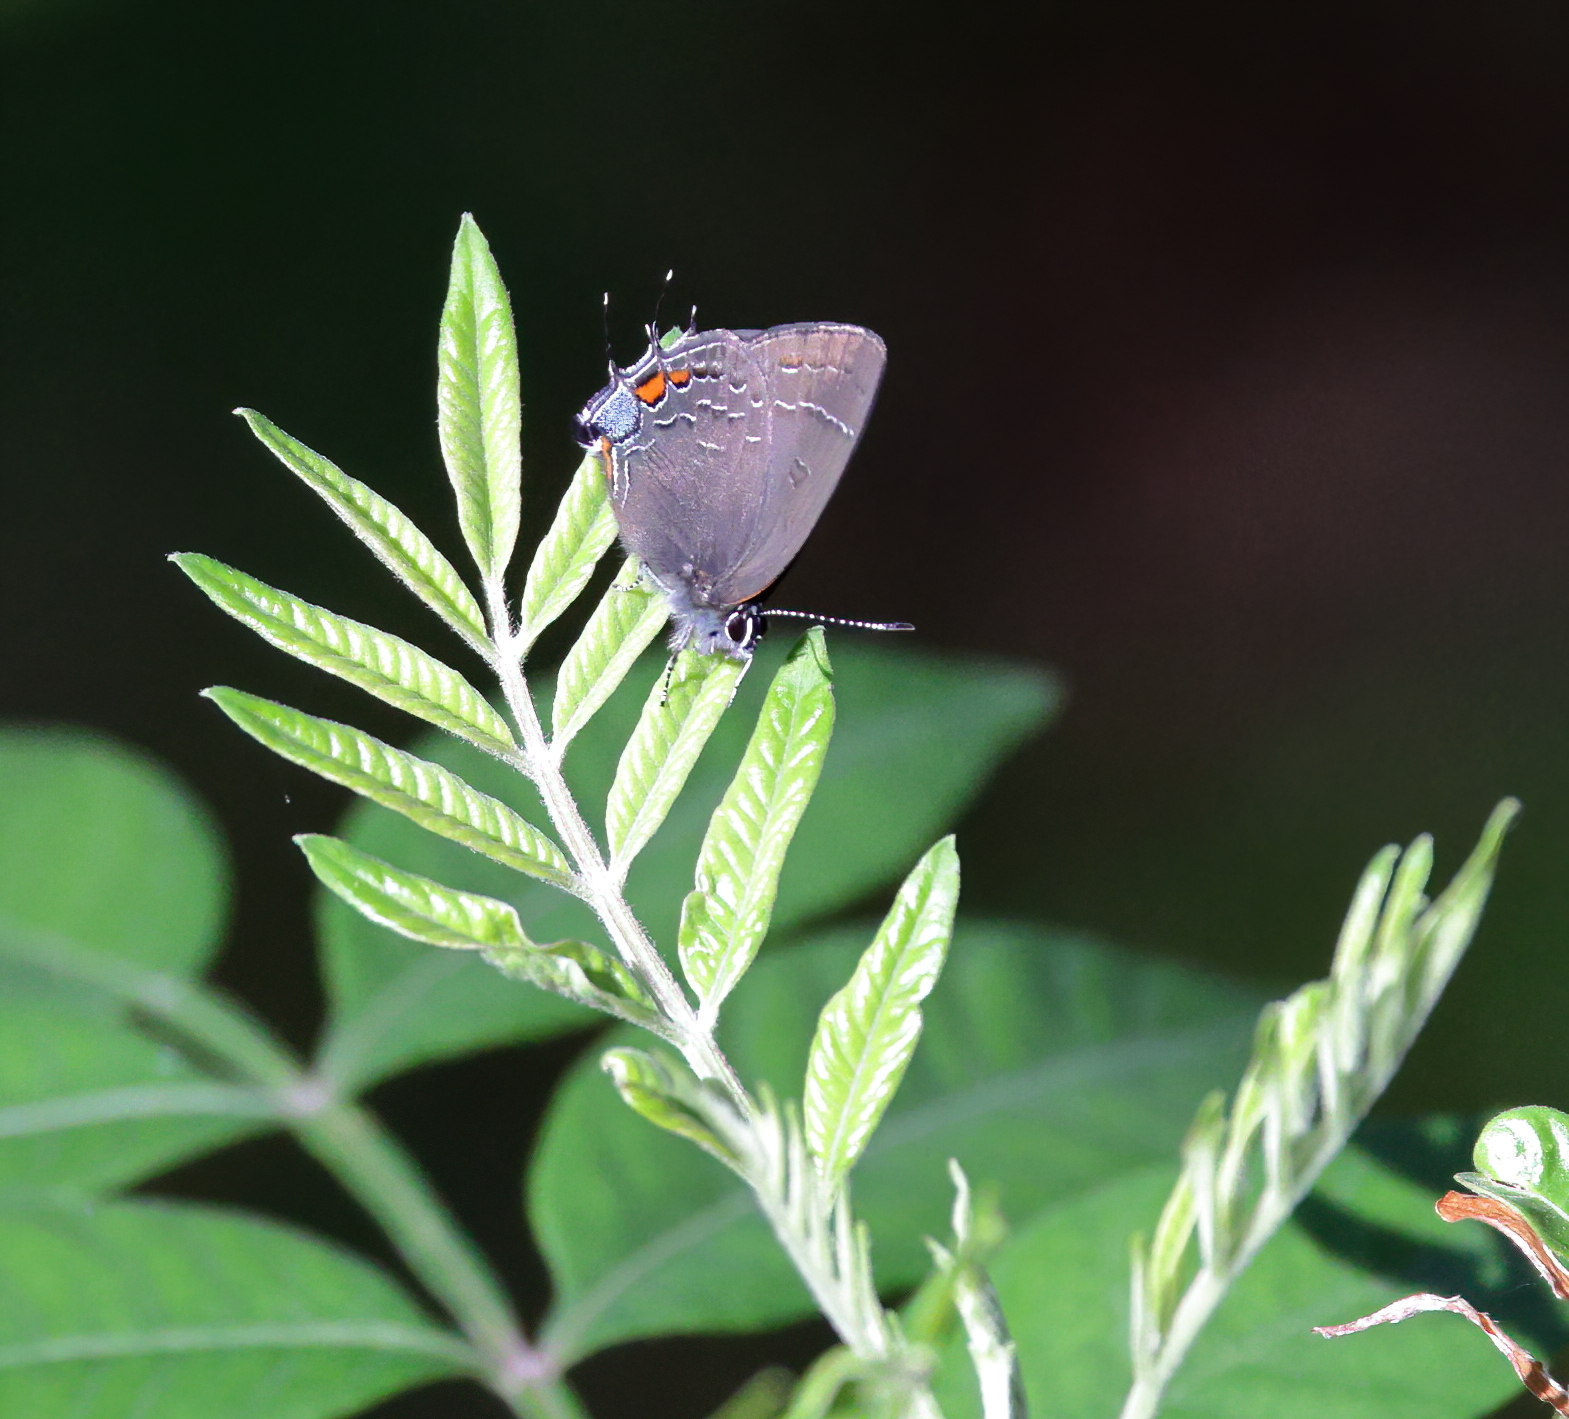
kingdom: Animalia
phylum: Arthropoda
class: Insecta
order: Lepidoptera
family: Lycaenidae
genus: Satyrium
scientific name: Satyrium calanus
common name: Banded hairstreak
